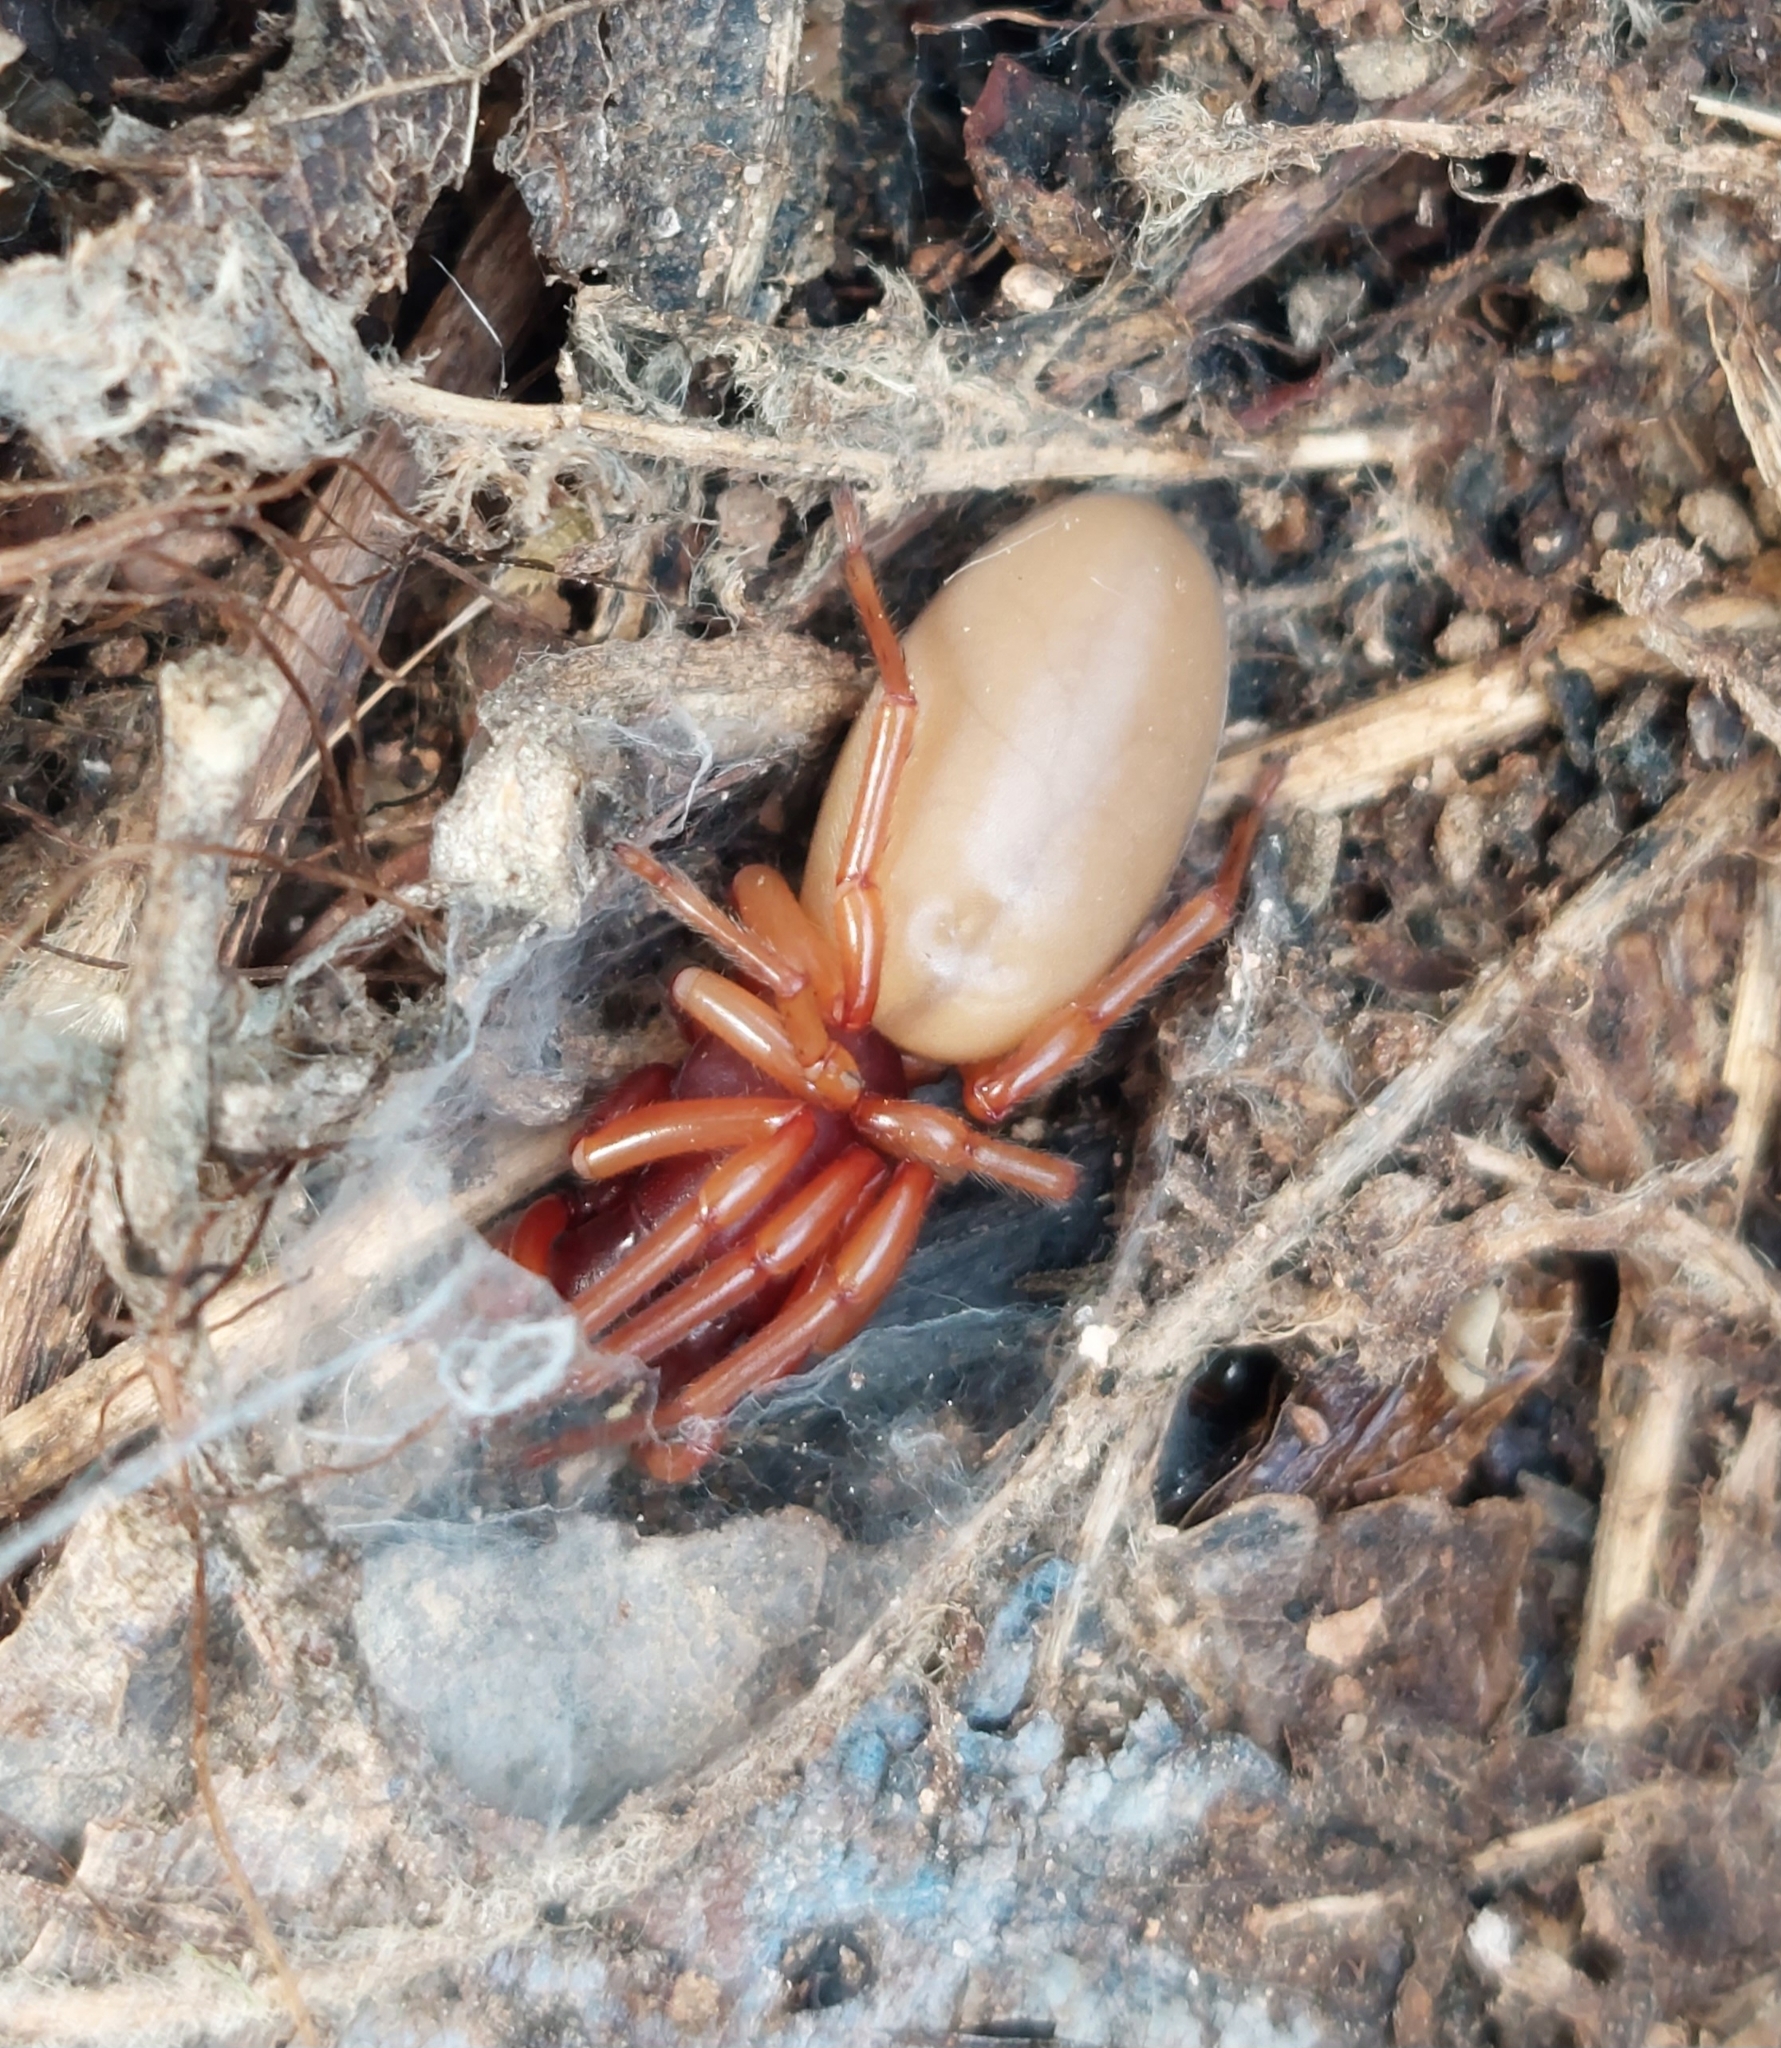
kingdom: Animalia
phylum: Arthropoda
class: Arachnida
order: Araneae
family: Dysderidae
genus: Dysdera
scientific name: Dysdera crocata
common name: Woodlouse spider
